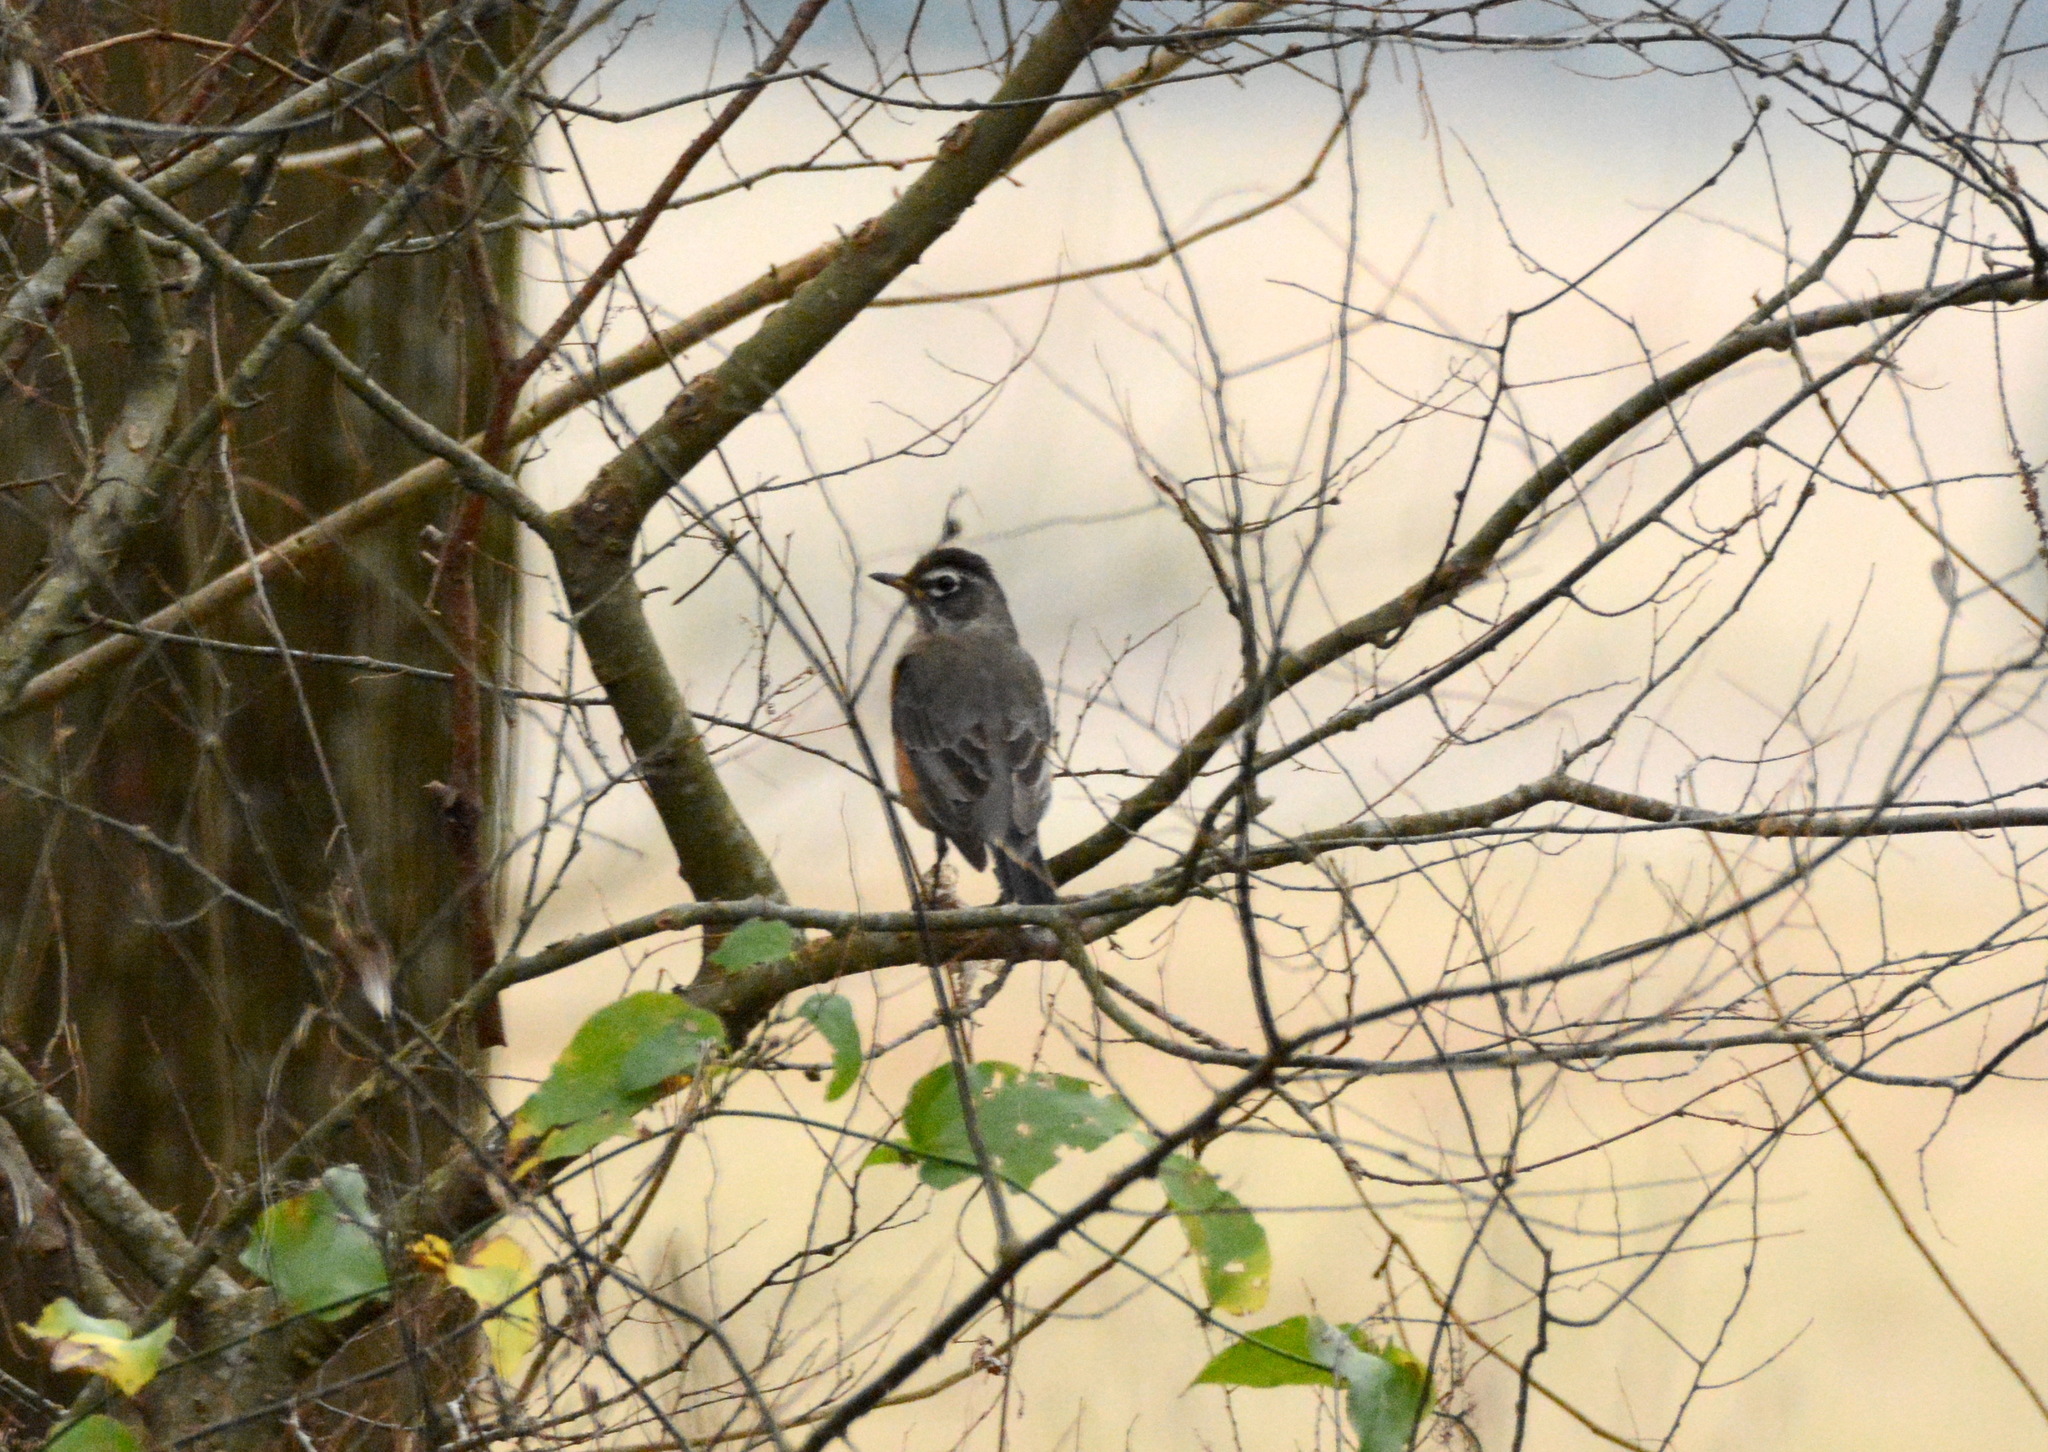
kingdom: Animalia
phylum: Chordata
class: Aves
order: Passeriformes
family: Turdidae
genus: Turdus
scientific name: Turdus migratorius
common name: American robin
